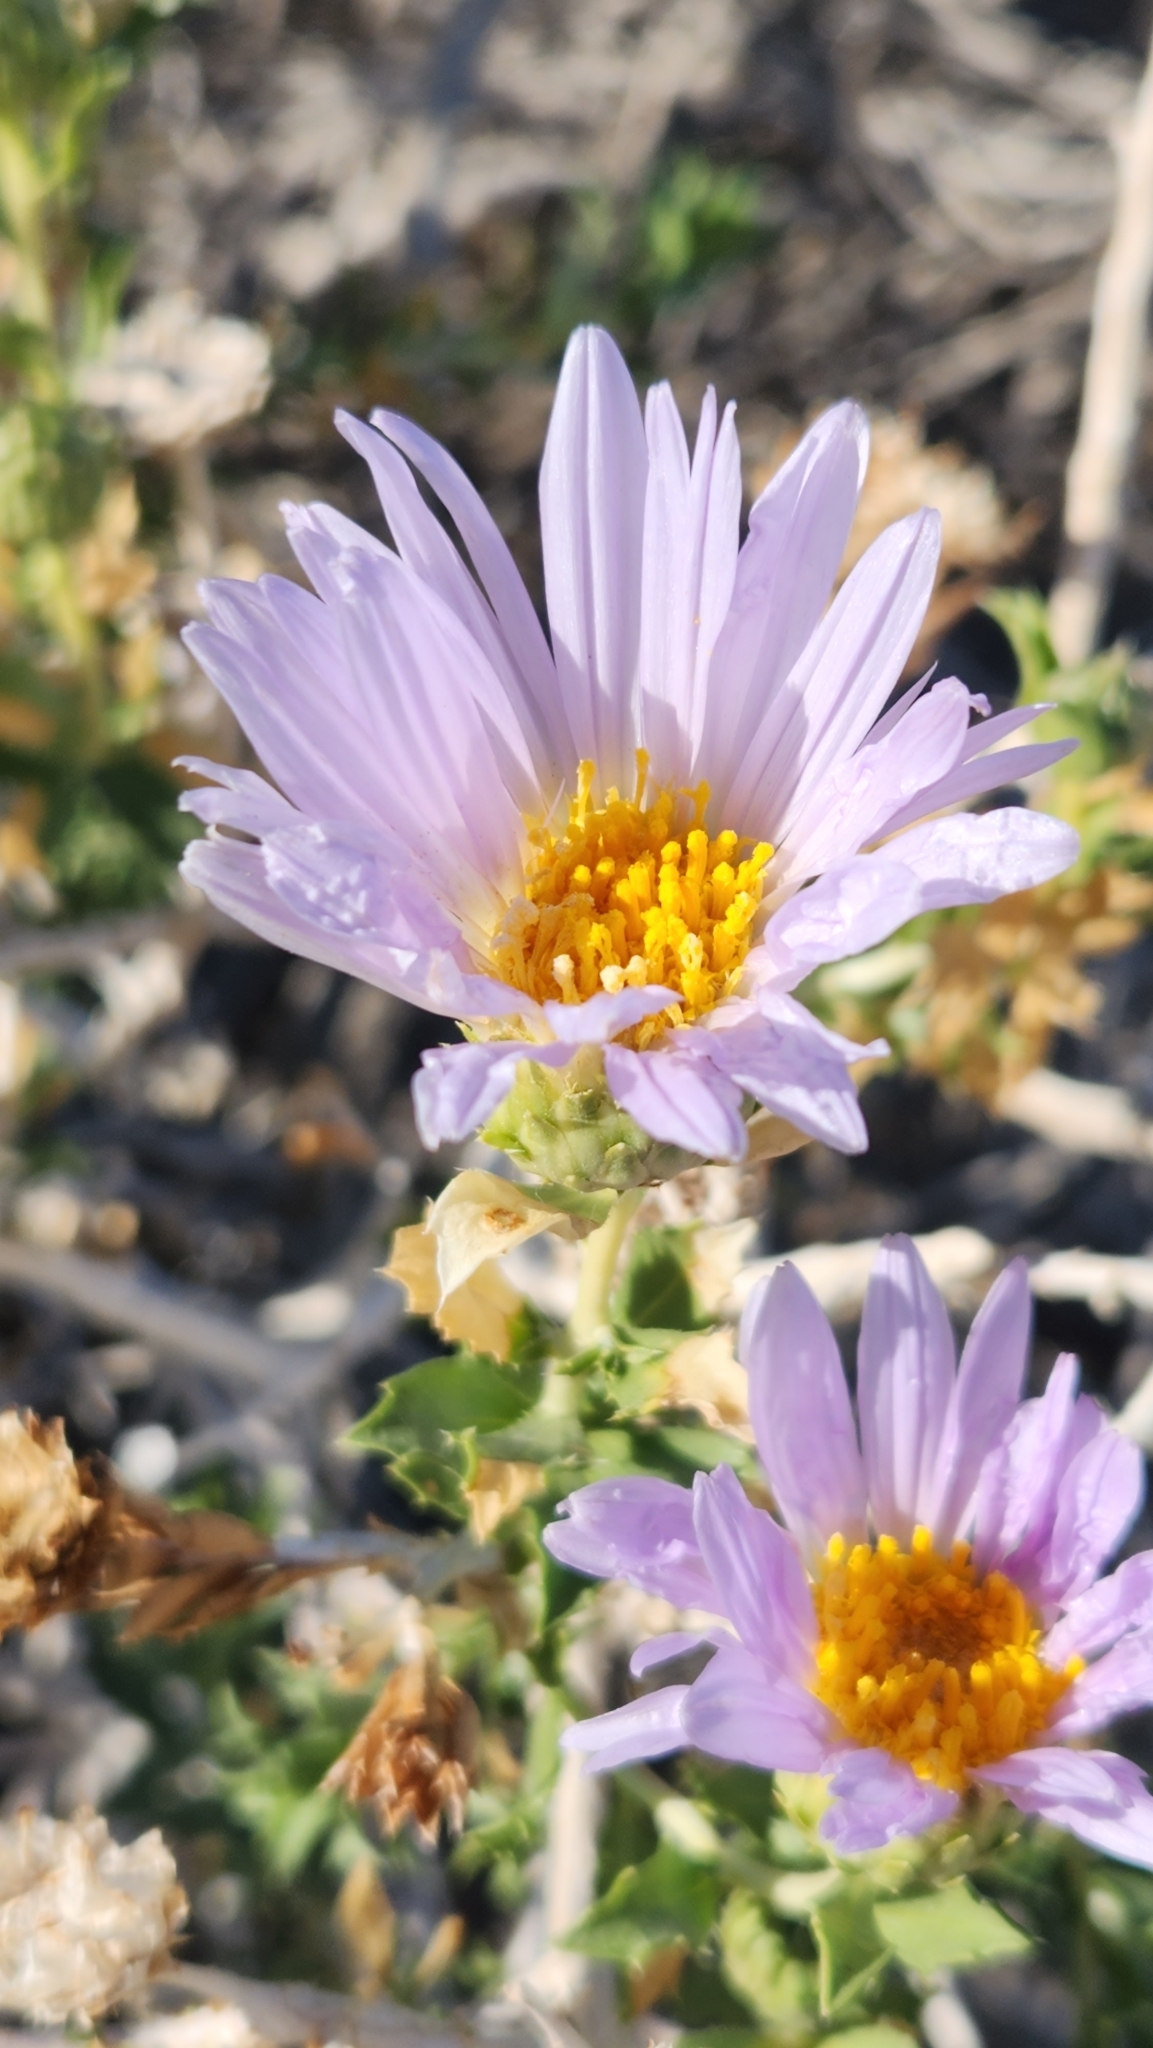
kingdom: Plantae
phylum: Tracheophyta
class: Magnoliopsida
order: Asterales
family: Asteraceae
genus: Xylorhiza
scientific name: Xylorhiza orcuttii
